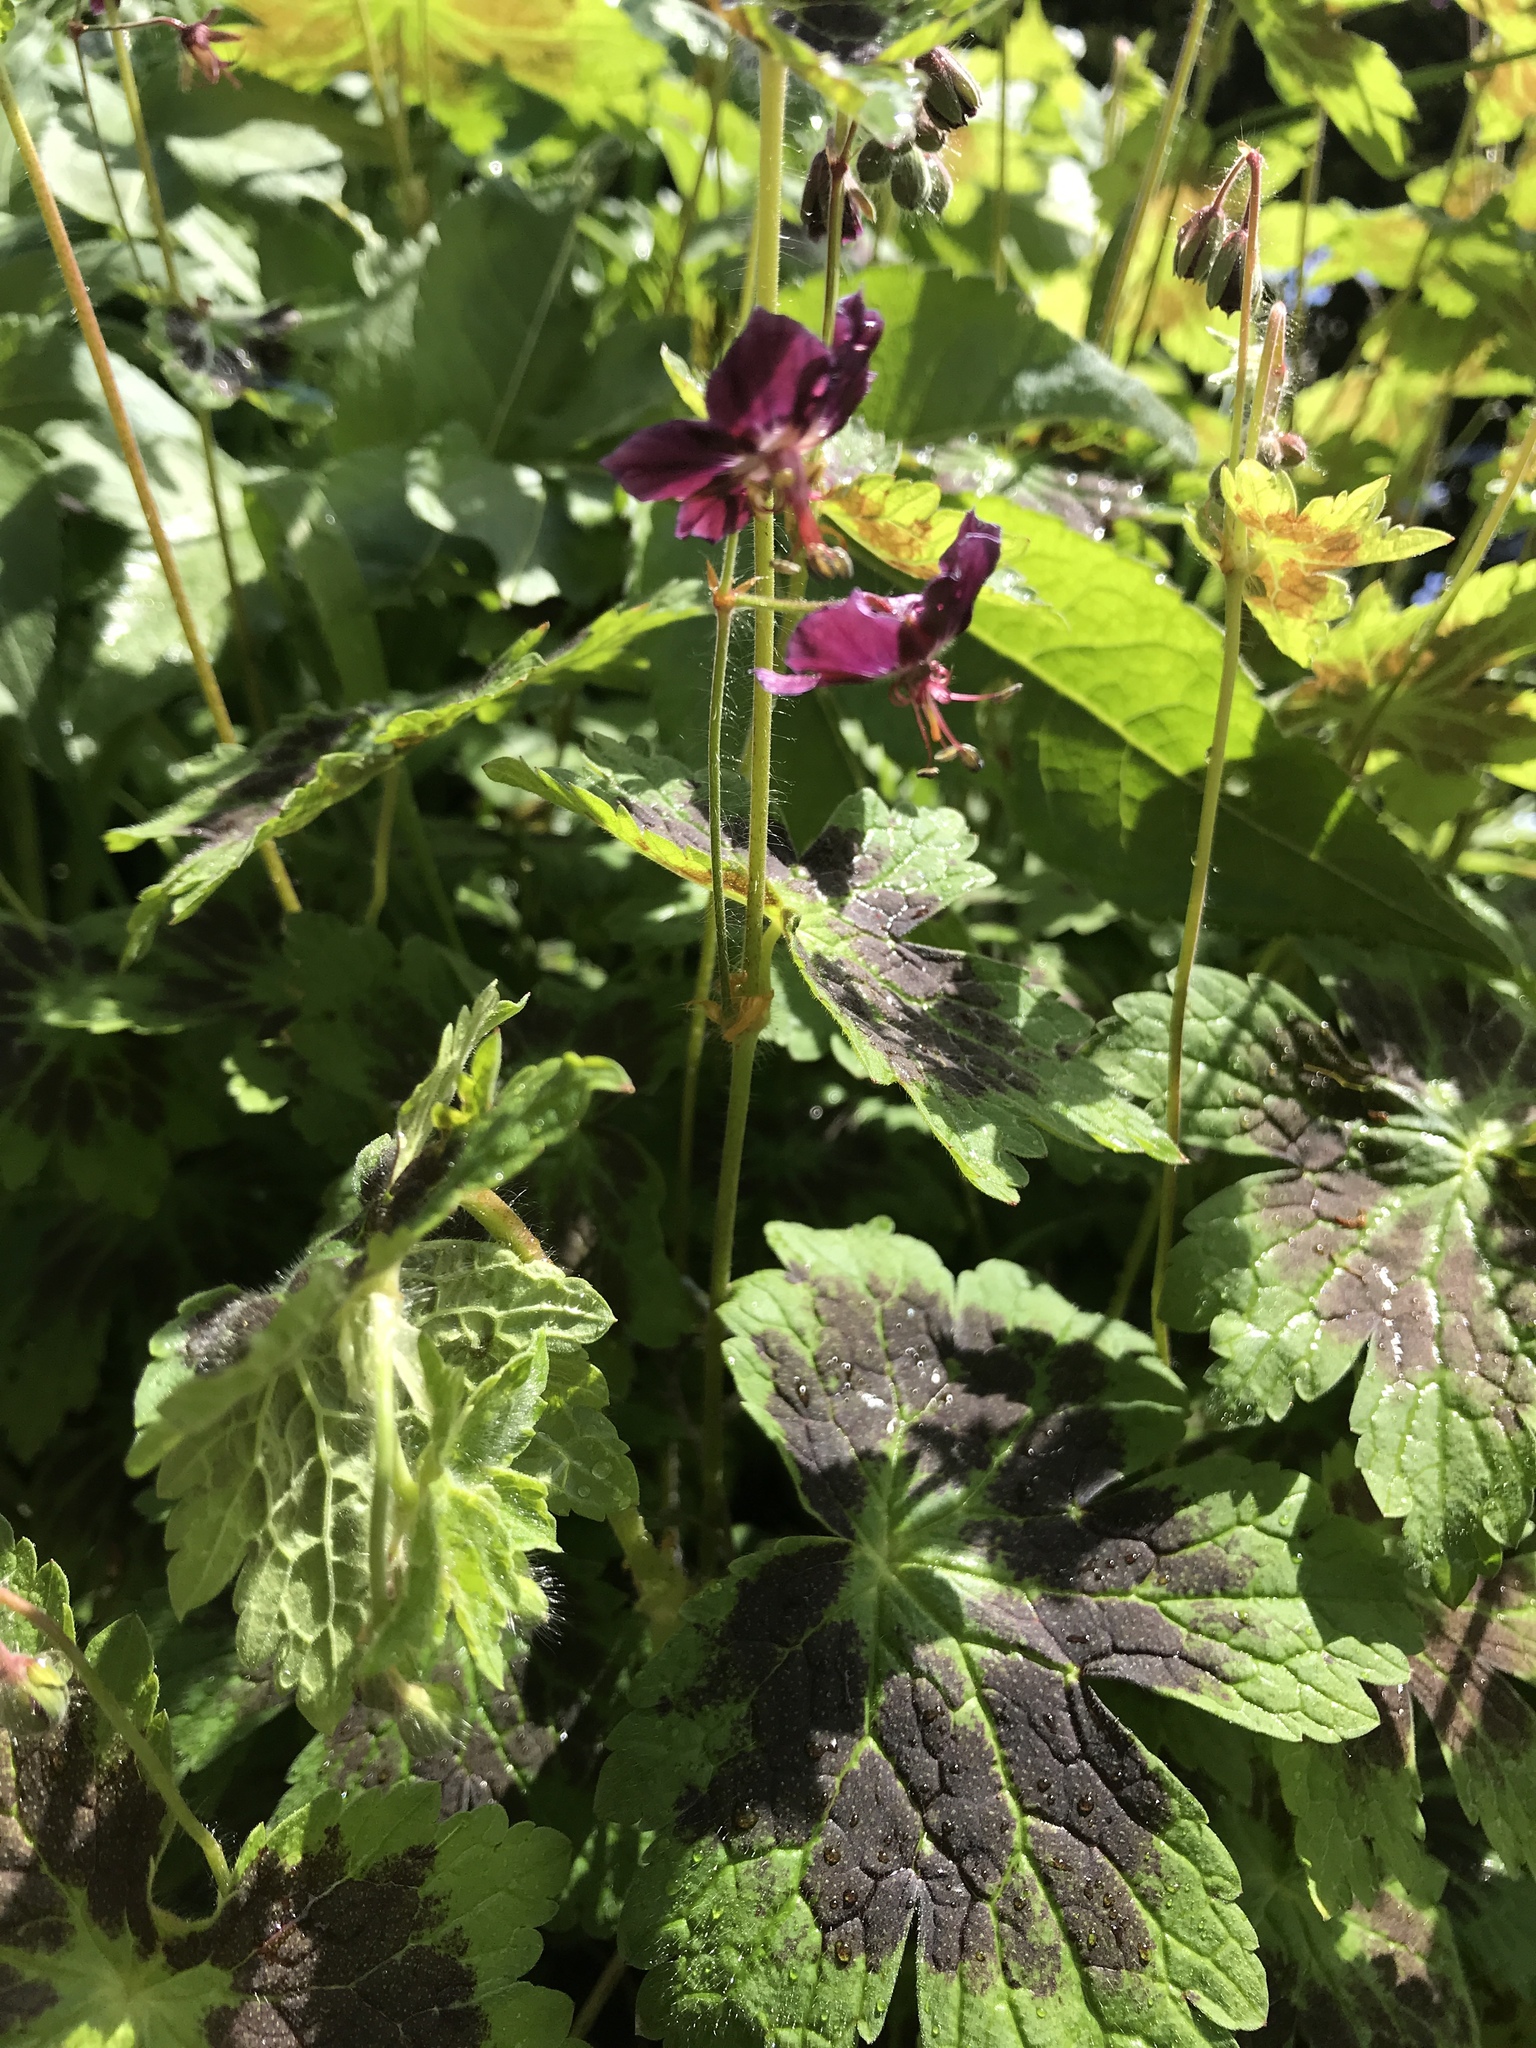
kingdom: Plantae
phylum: Tracheophyta
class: Magnoliopsida
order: Geraniales
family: Geraniaceae
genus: Geranium
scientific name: Geranium phaeum
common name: Dusky crane's-bill
